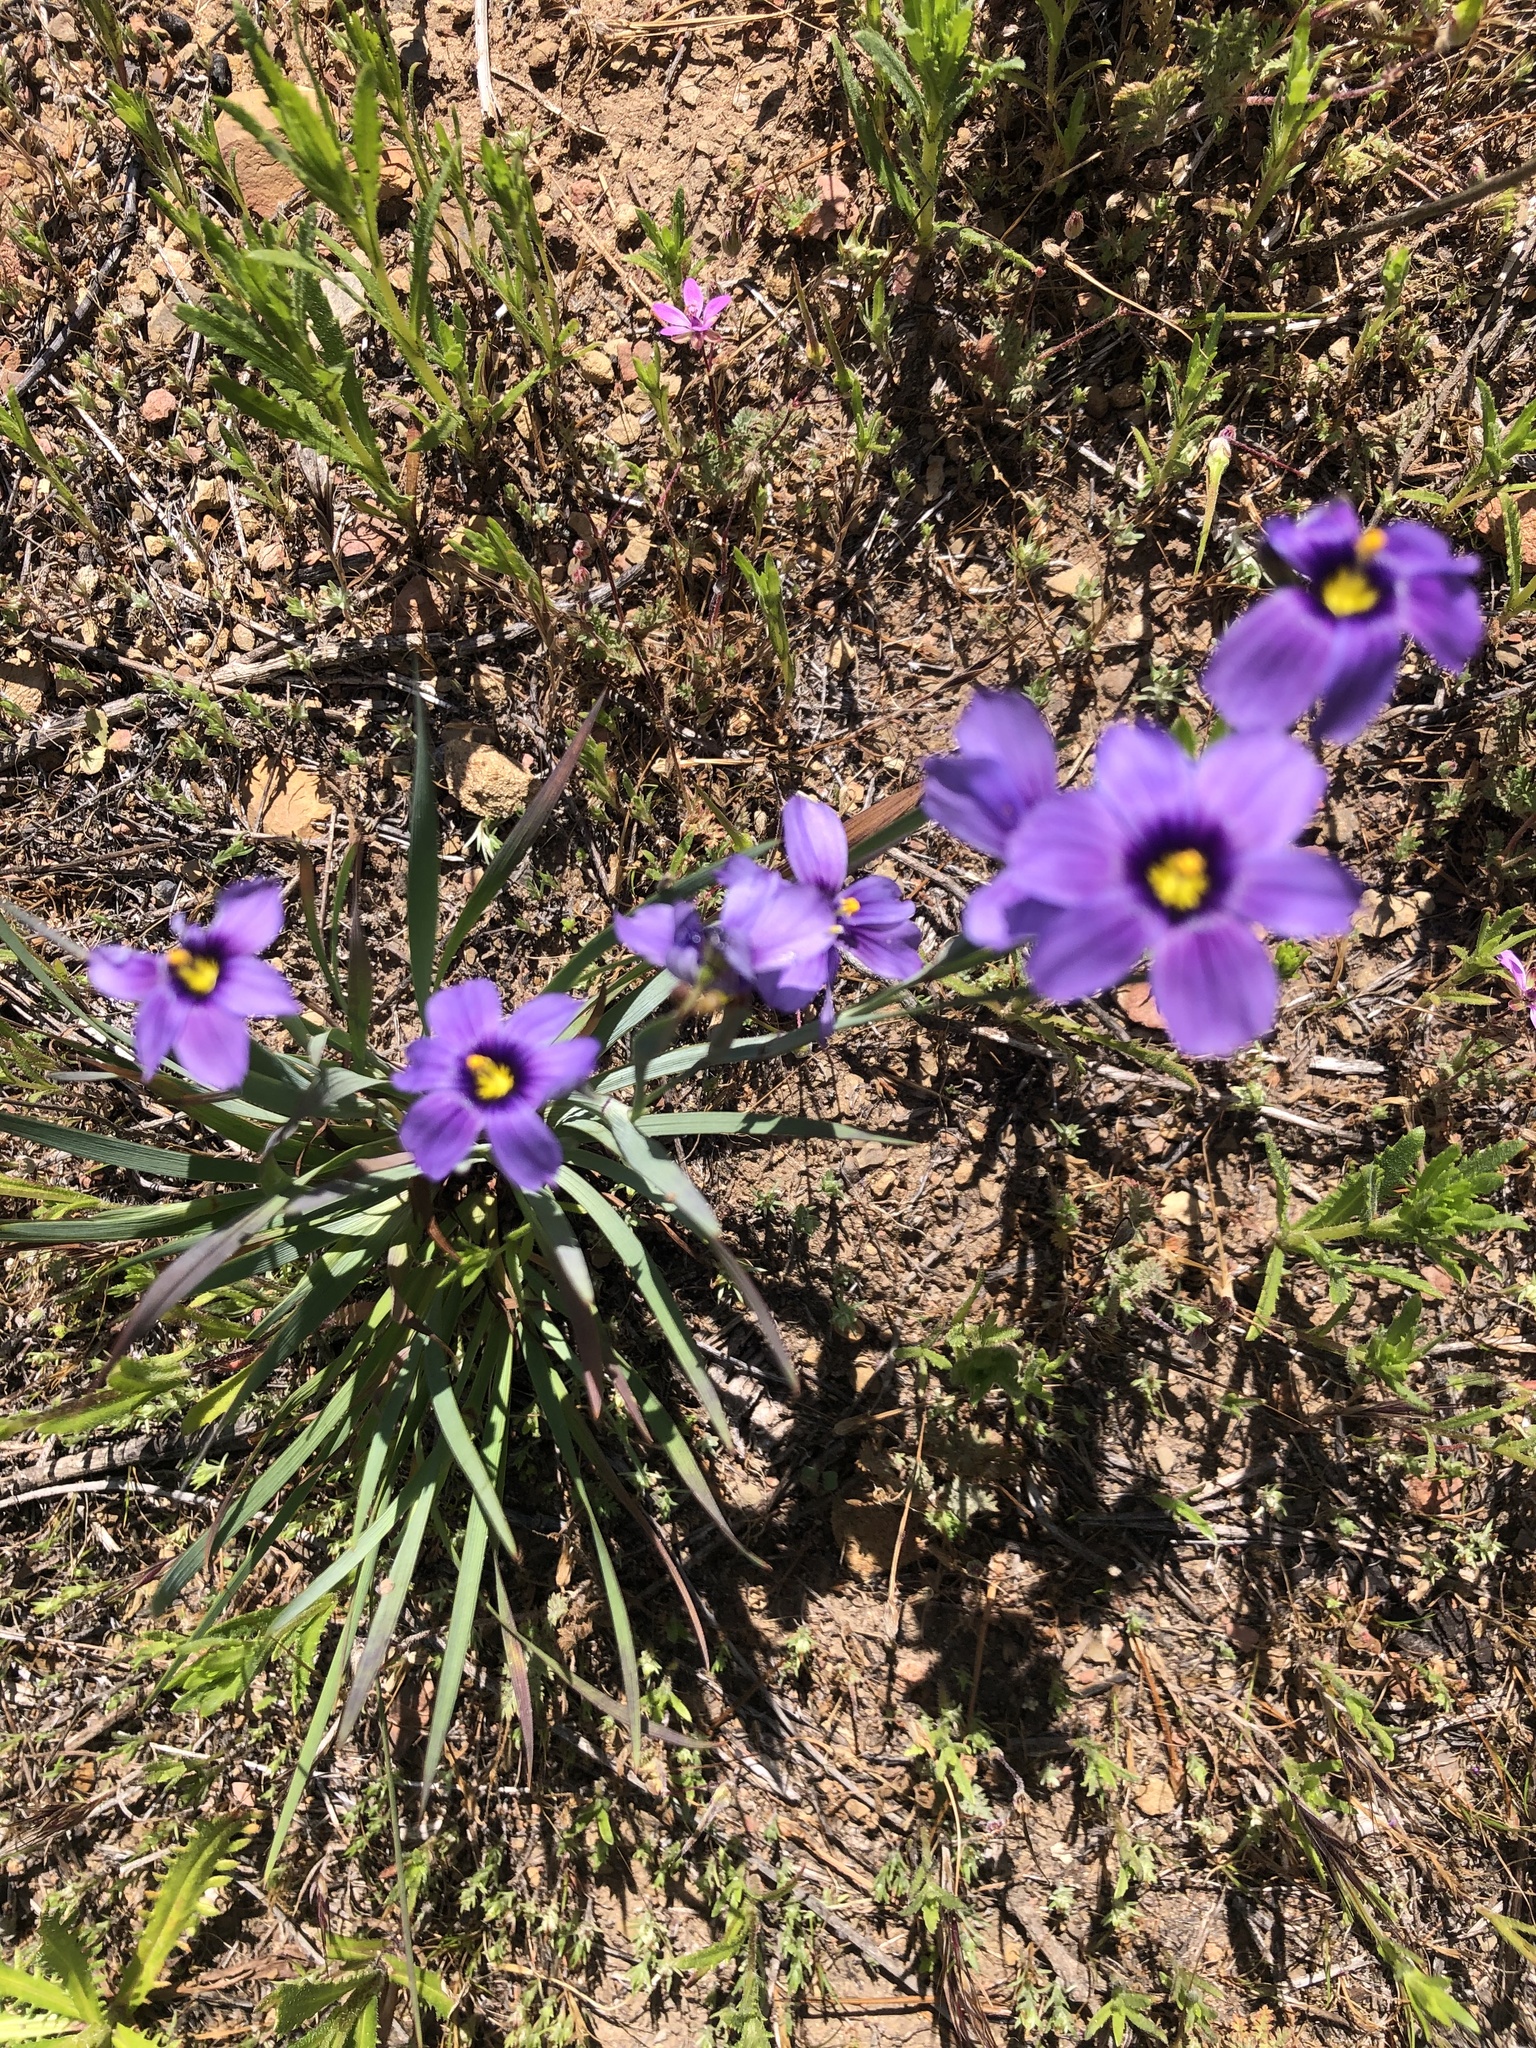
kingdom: Plantae
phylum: Tracheophyta
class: Liliopsida
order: Asparagales
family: Iridaceae
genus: Sisyrinchium
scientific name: Sisyrinchium bellum
